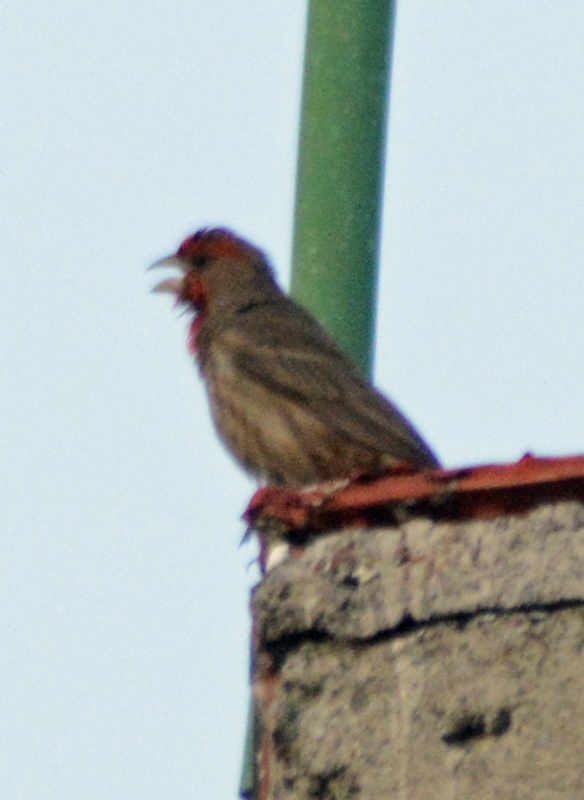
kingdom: Animalia
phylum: Chordata
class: Aves
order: Passeriformes
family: Fringillidae
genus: Haemorhous
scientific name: Haemorhous mexicanus
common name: House finch
